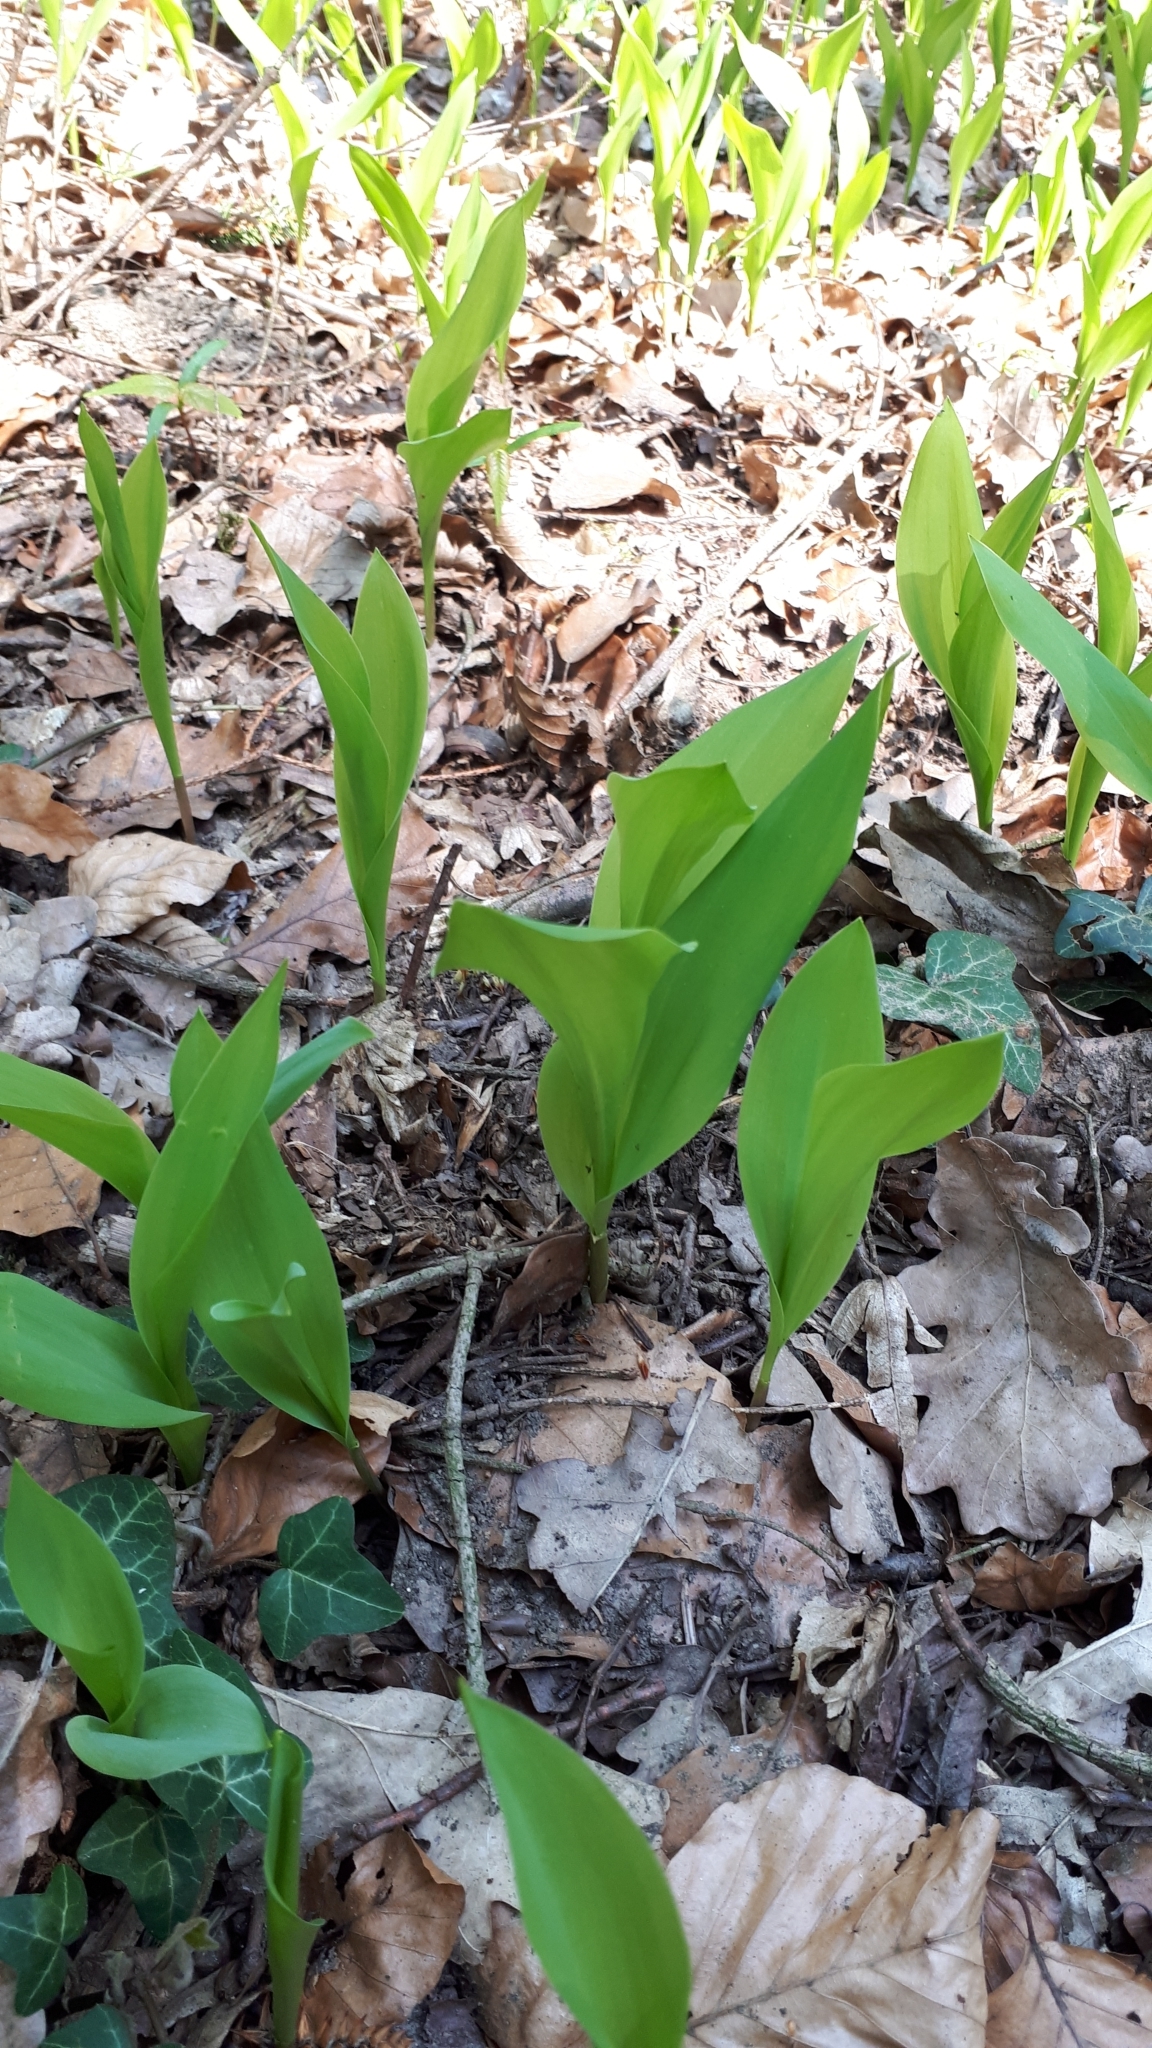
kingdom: Plantae
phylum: Tracheophyta
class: Liliopsida
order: Asparagales
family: Asparagaceae
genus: Convallaria
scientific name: Convallaria majalis
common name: Lily-of-the-valley
